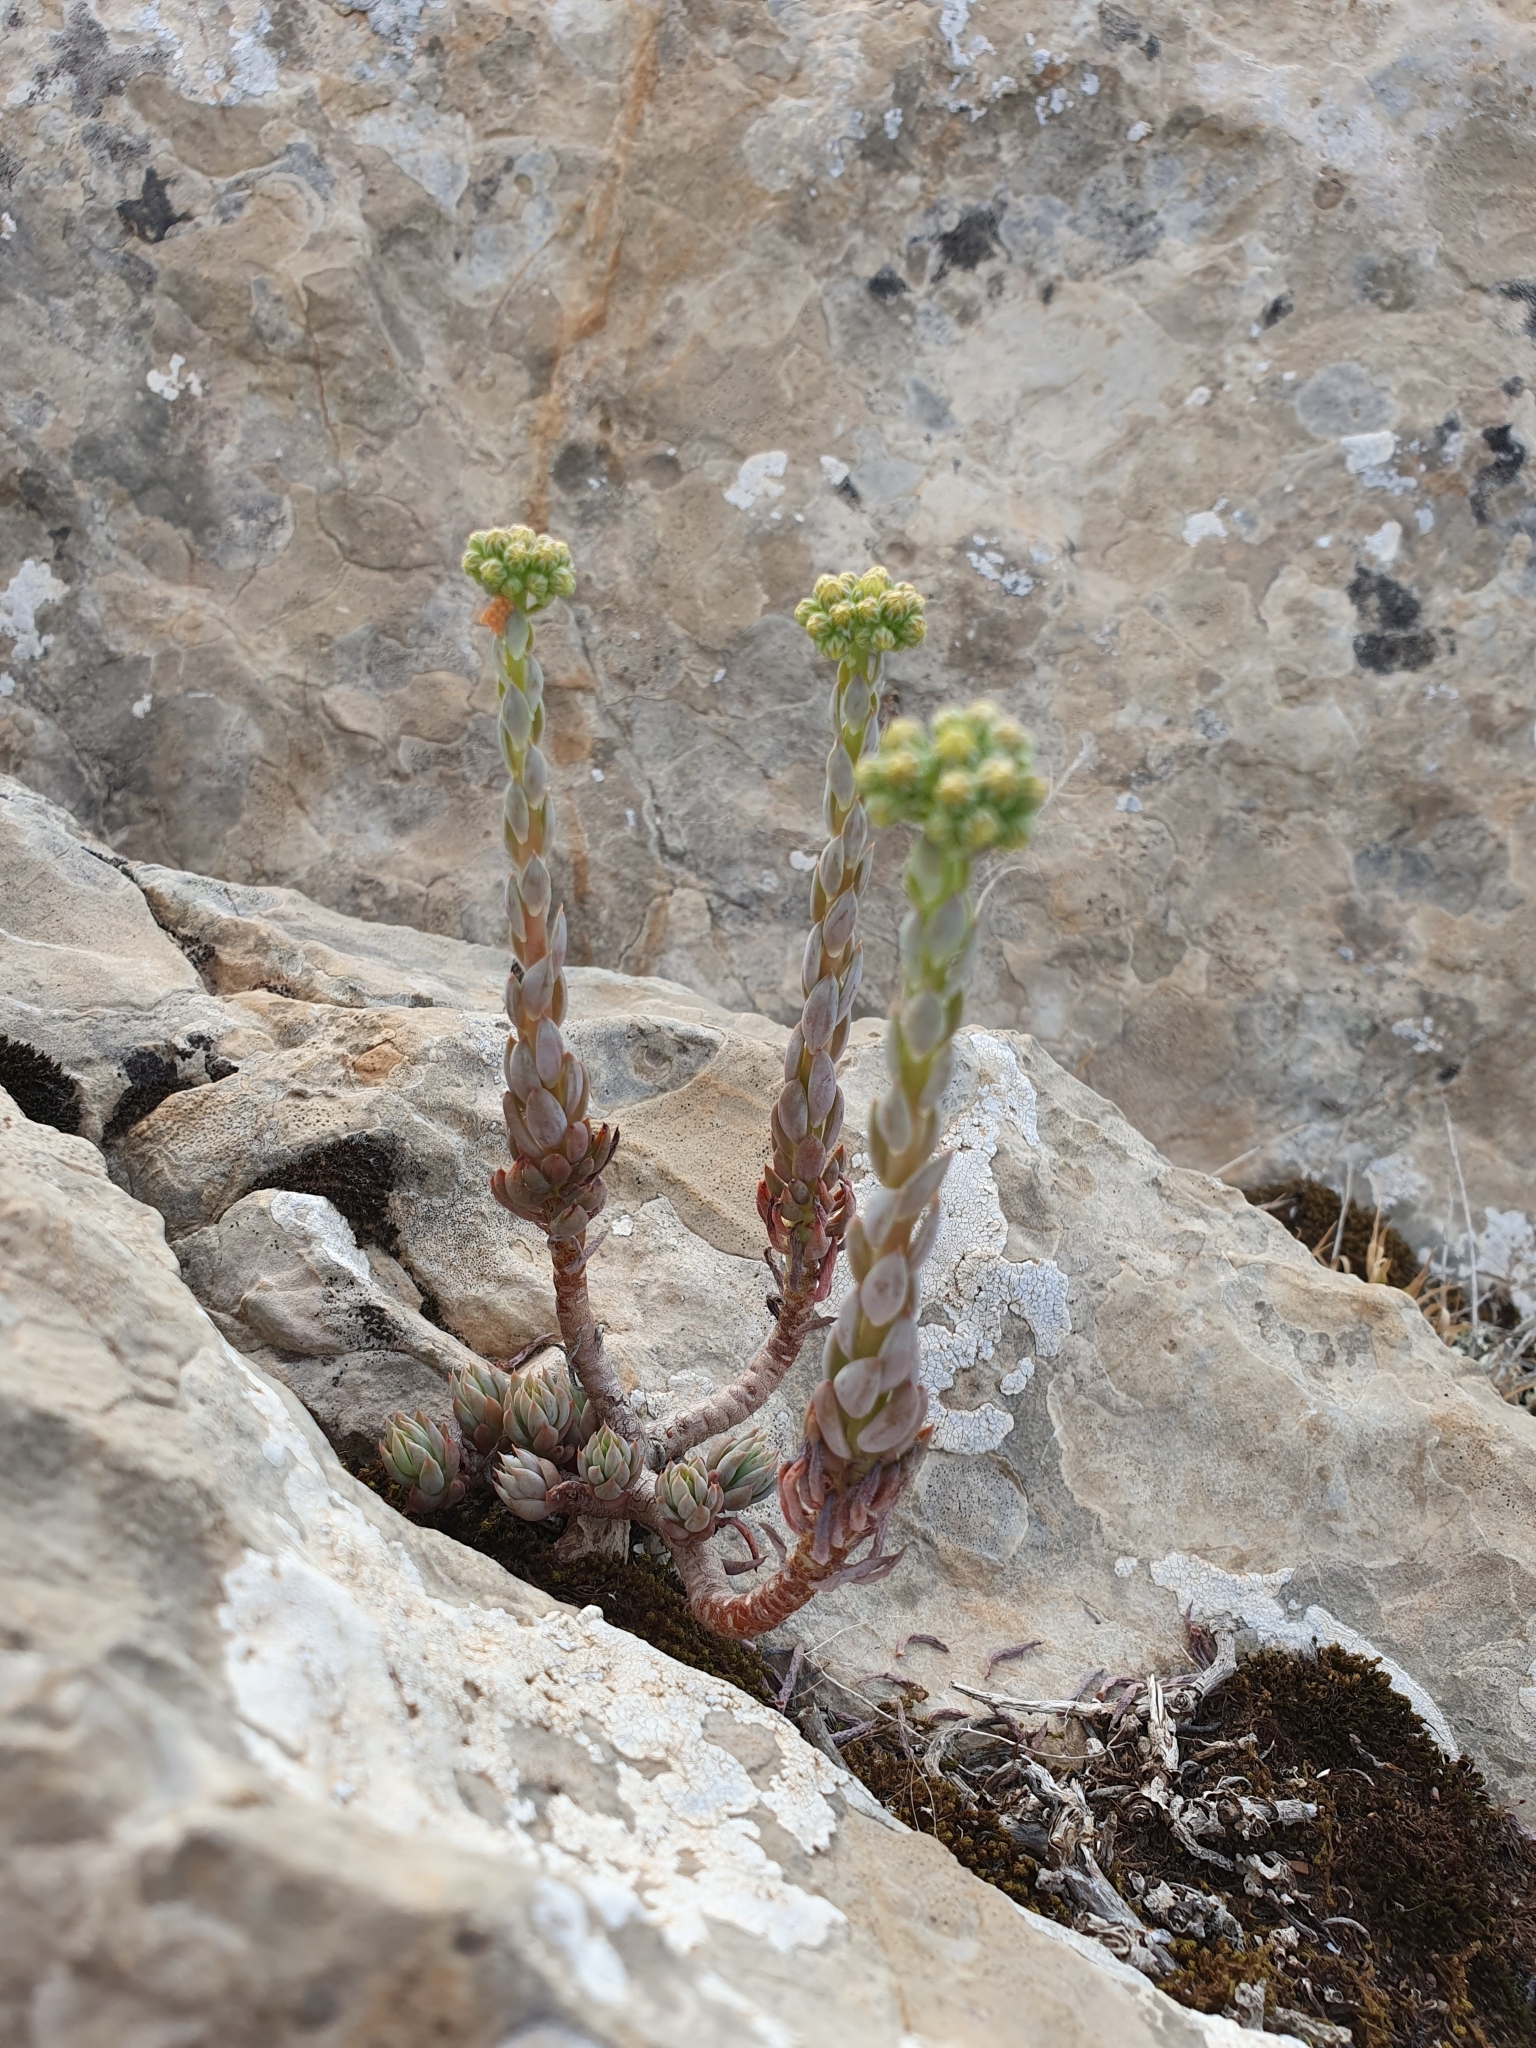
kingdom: Plantae
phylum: Tracheophyta
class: Magnoliopsida
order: Saxifragales
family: Crassulaceae
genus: Petrosedum
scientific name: Petrosedum sediforme
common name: Pale stonecrop
